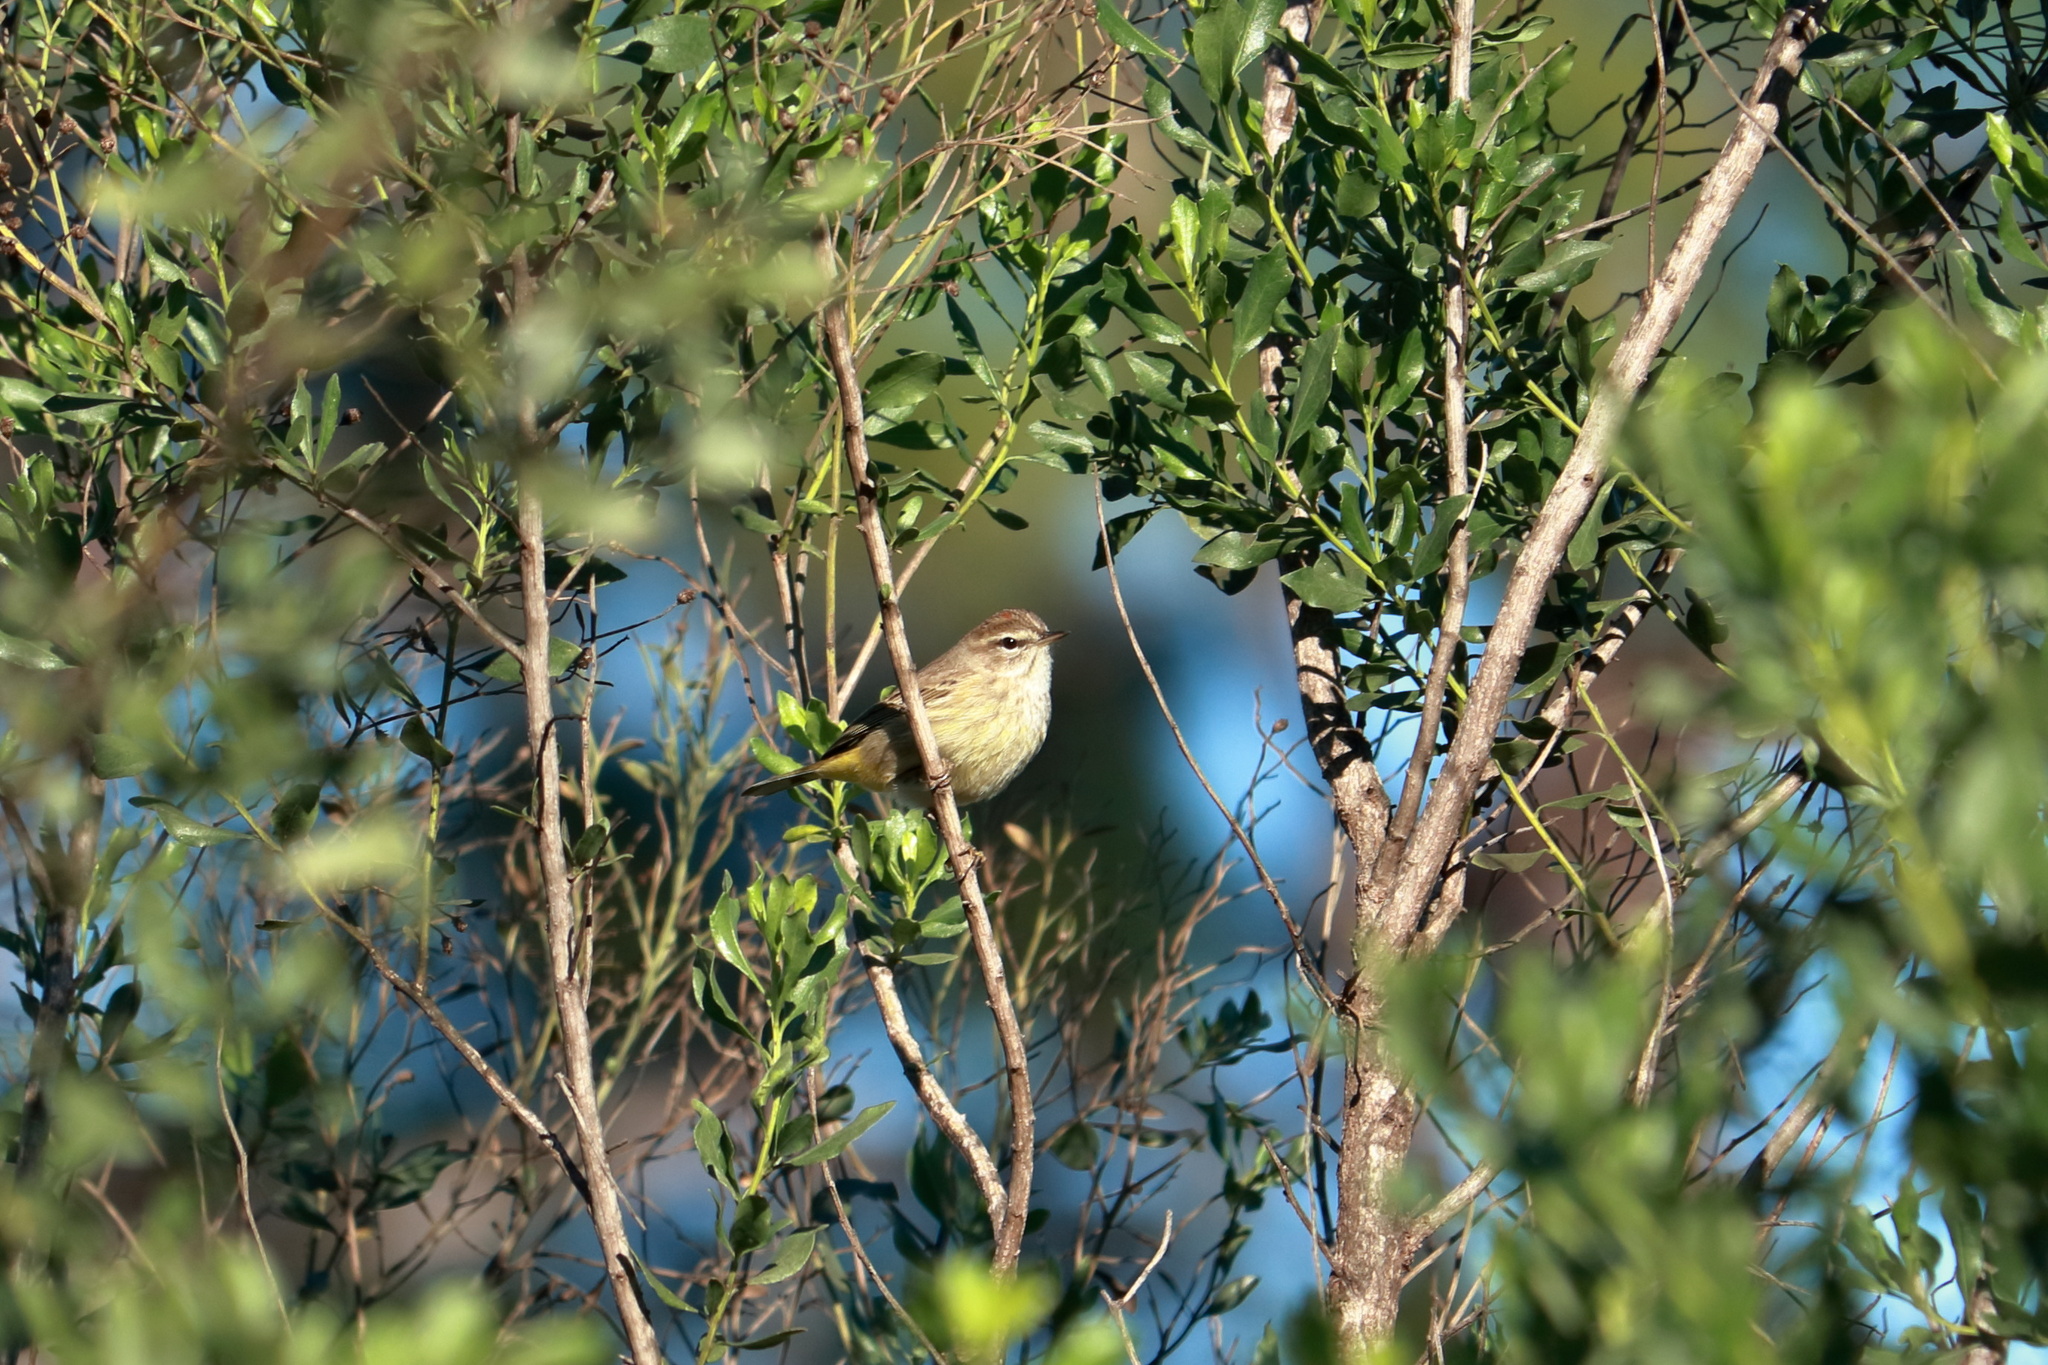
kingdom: Animalia
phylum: Chordata
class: Aves
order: Passeriformes
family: Parulidae
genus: Setophaga
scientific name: Setophaga palmarum
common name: Palm warbler
